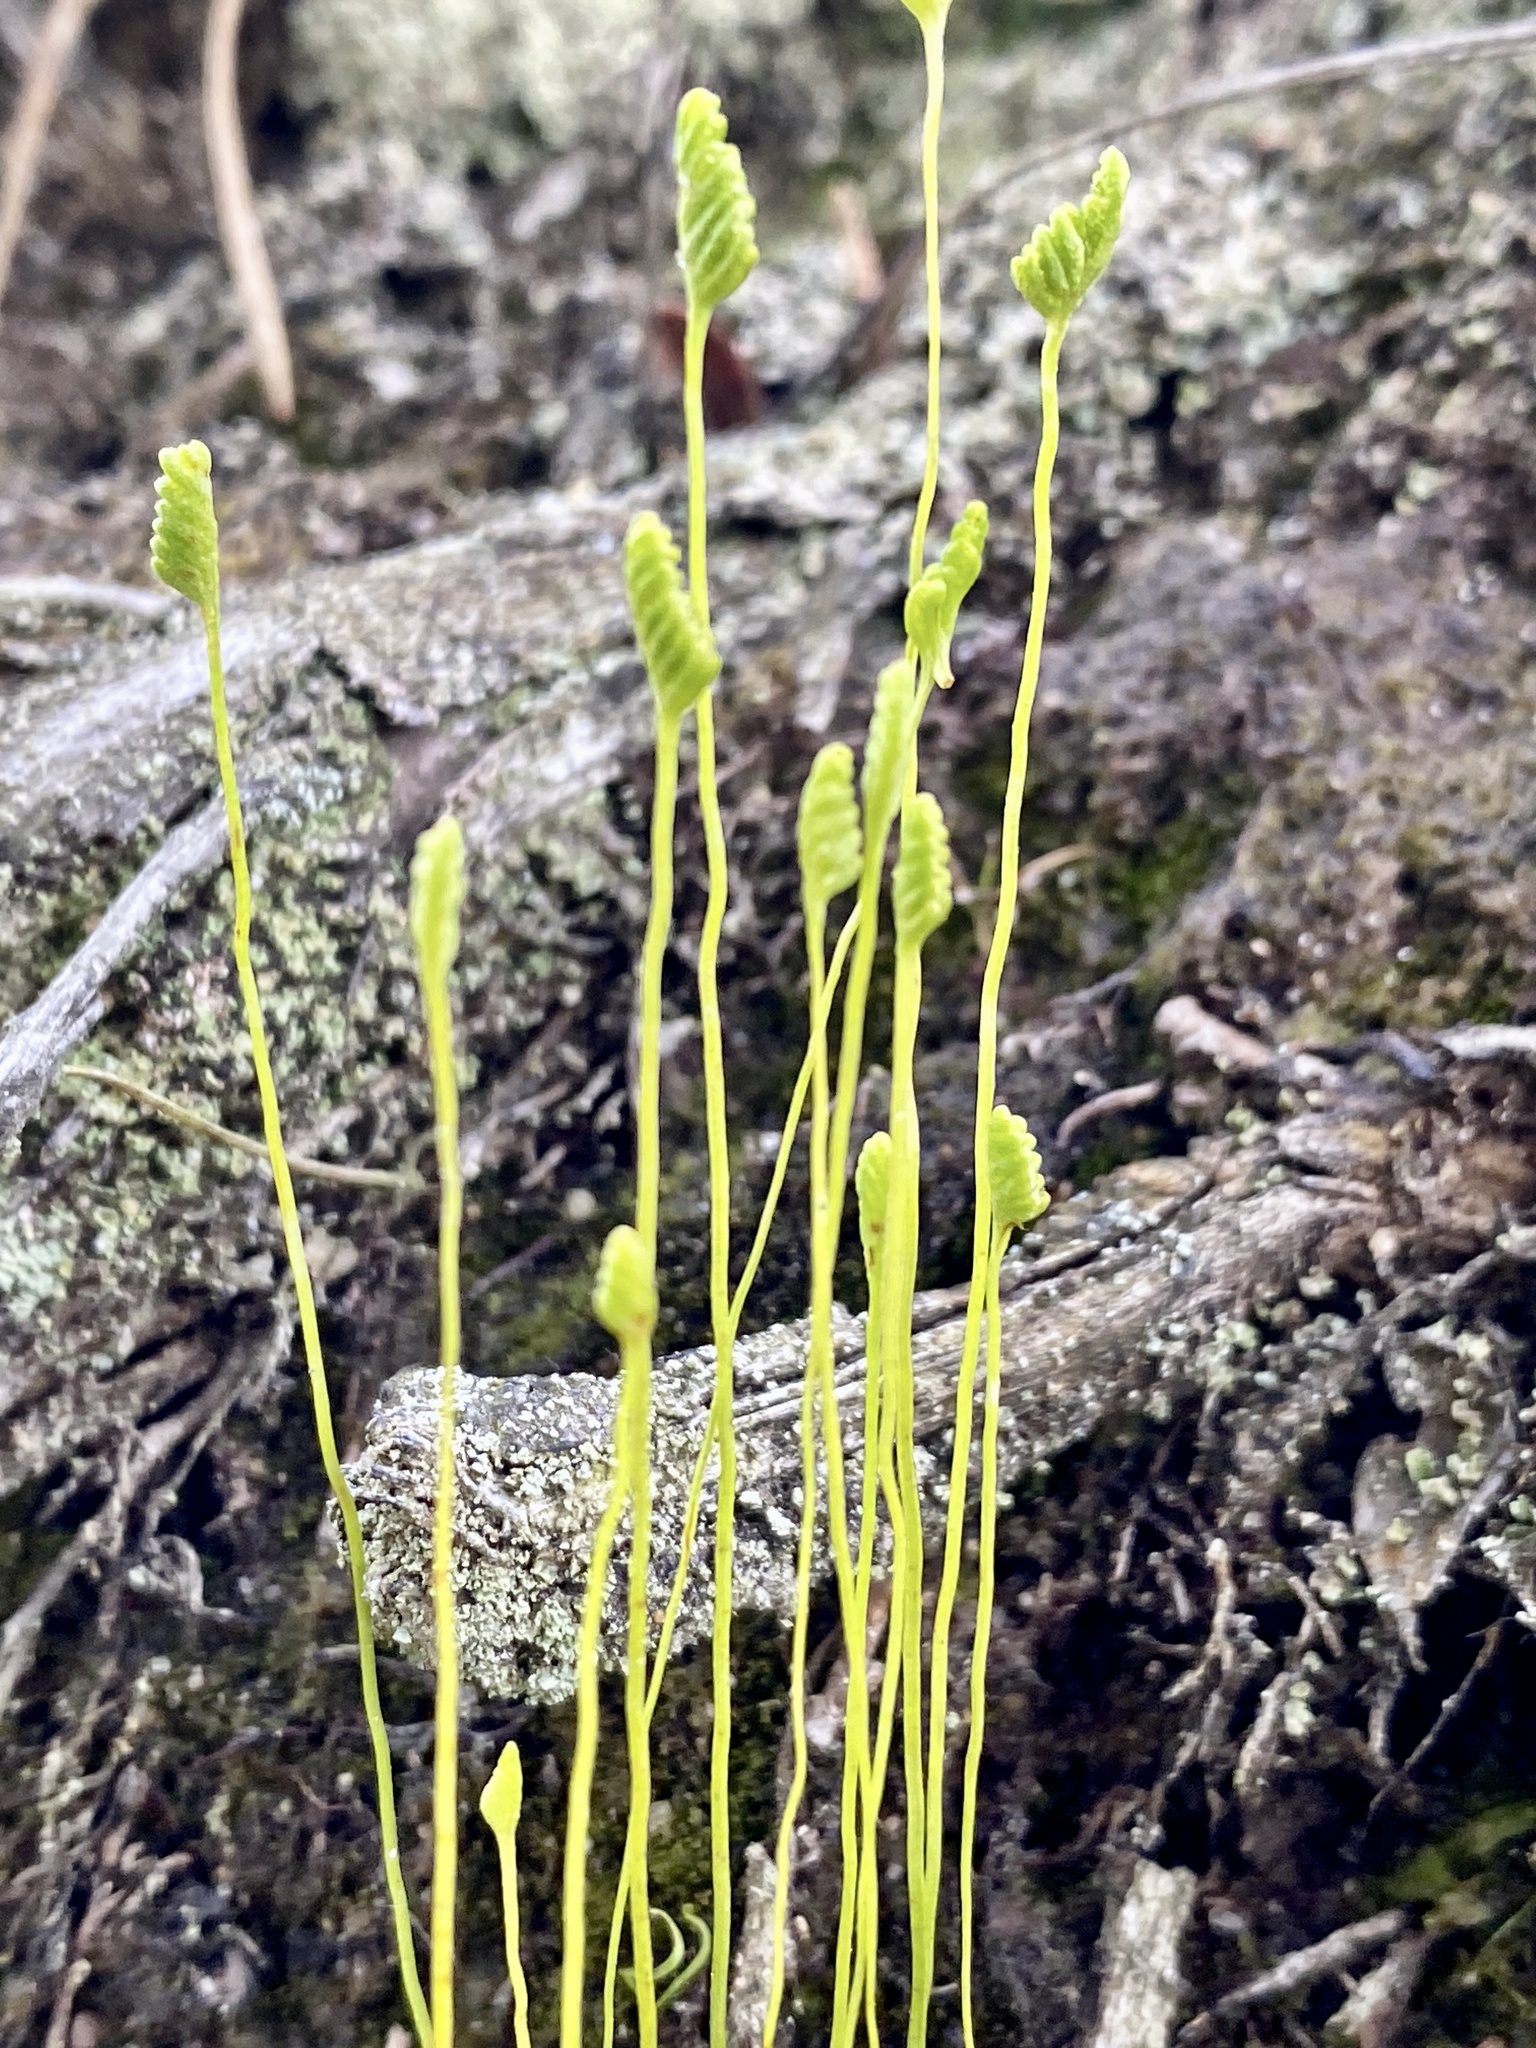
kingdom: Plantae
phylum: Tracheophyta
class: Polypodiopsida
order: Schizaeales
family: Schizaeaceae
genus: Schizaea
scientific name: Schizaea pusilla
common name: Curly-grass fern
